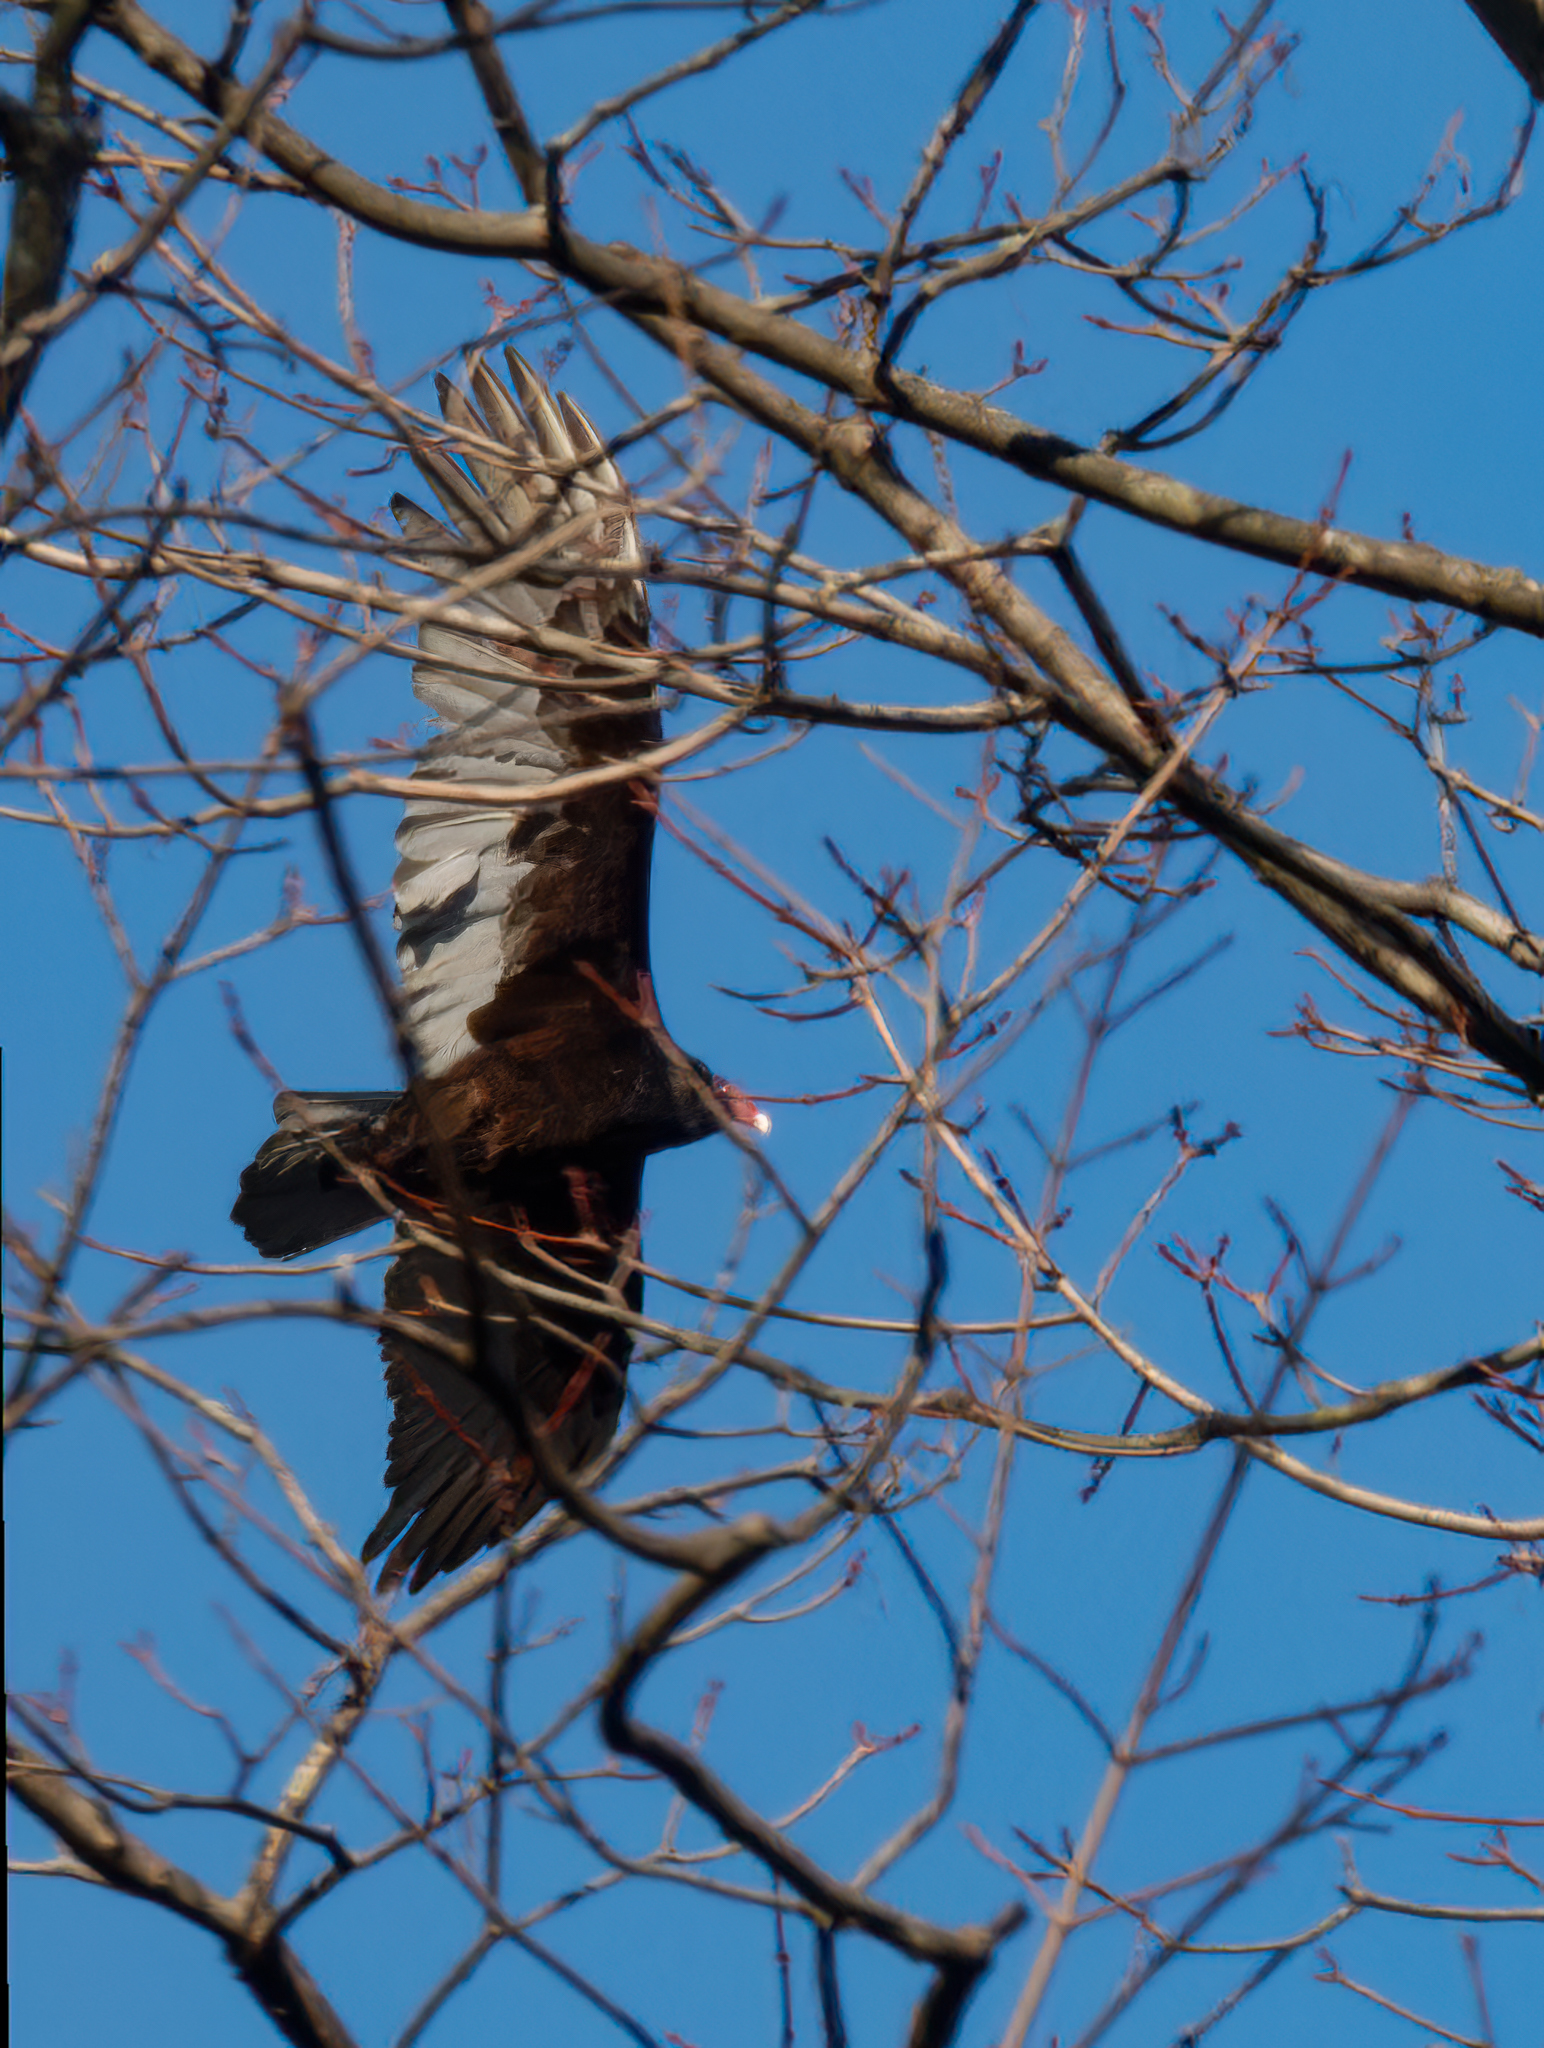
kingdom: Animalia
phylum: Chordata
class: Aves
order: Accipitriformes
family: Cathartidae
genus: Cathartes
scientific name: Cathartes aura
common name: Turkey vulture
